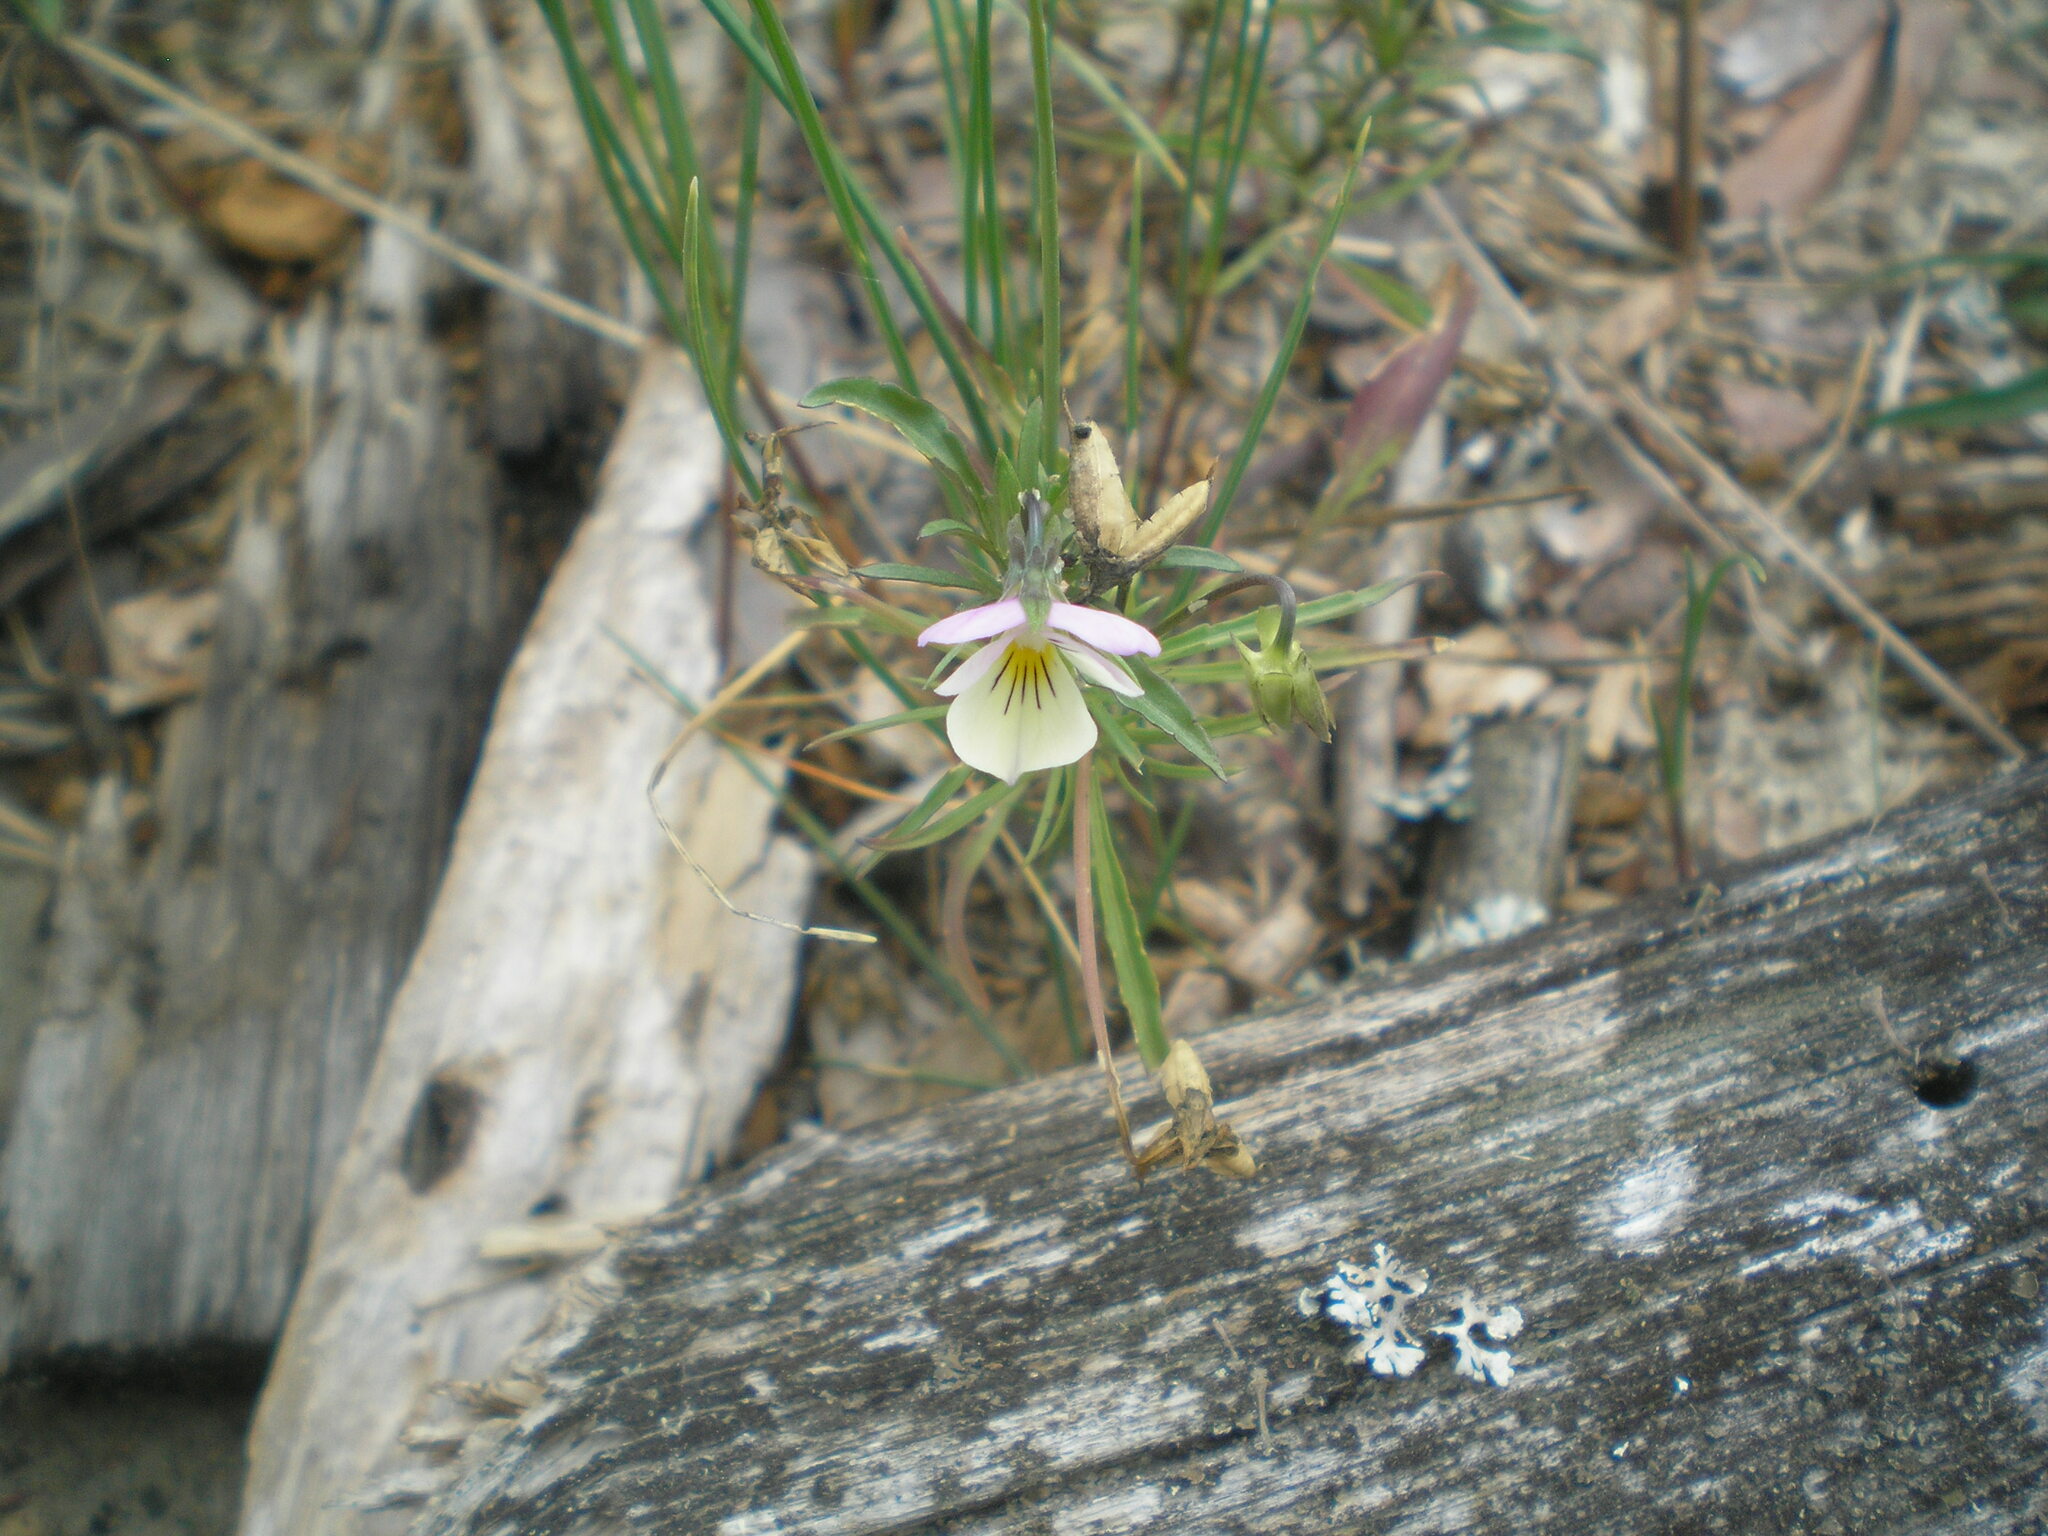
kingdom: Plantae
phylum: Tracheophyta
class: Magnoliopsida
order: Malpighiales
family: Violaceae
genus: Viola
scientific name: Viola tricolor
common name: Pansy
